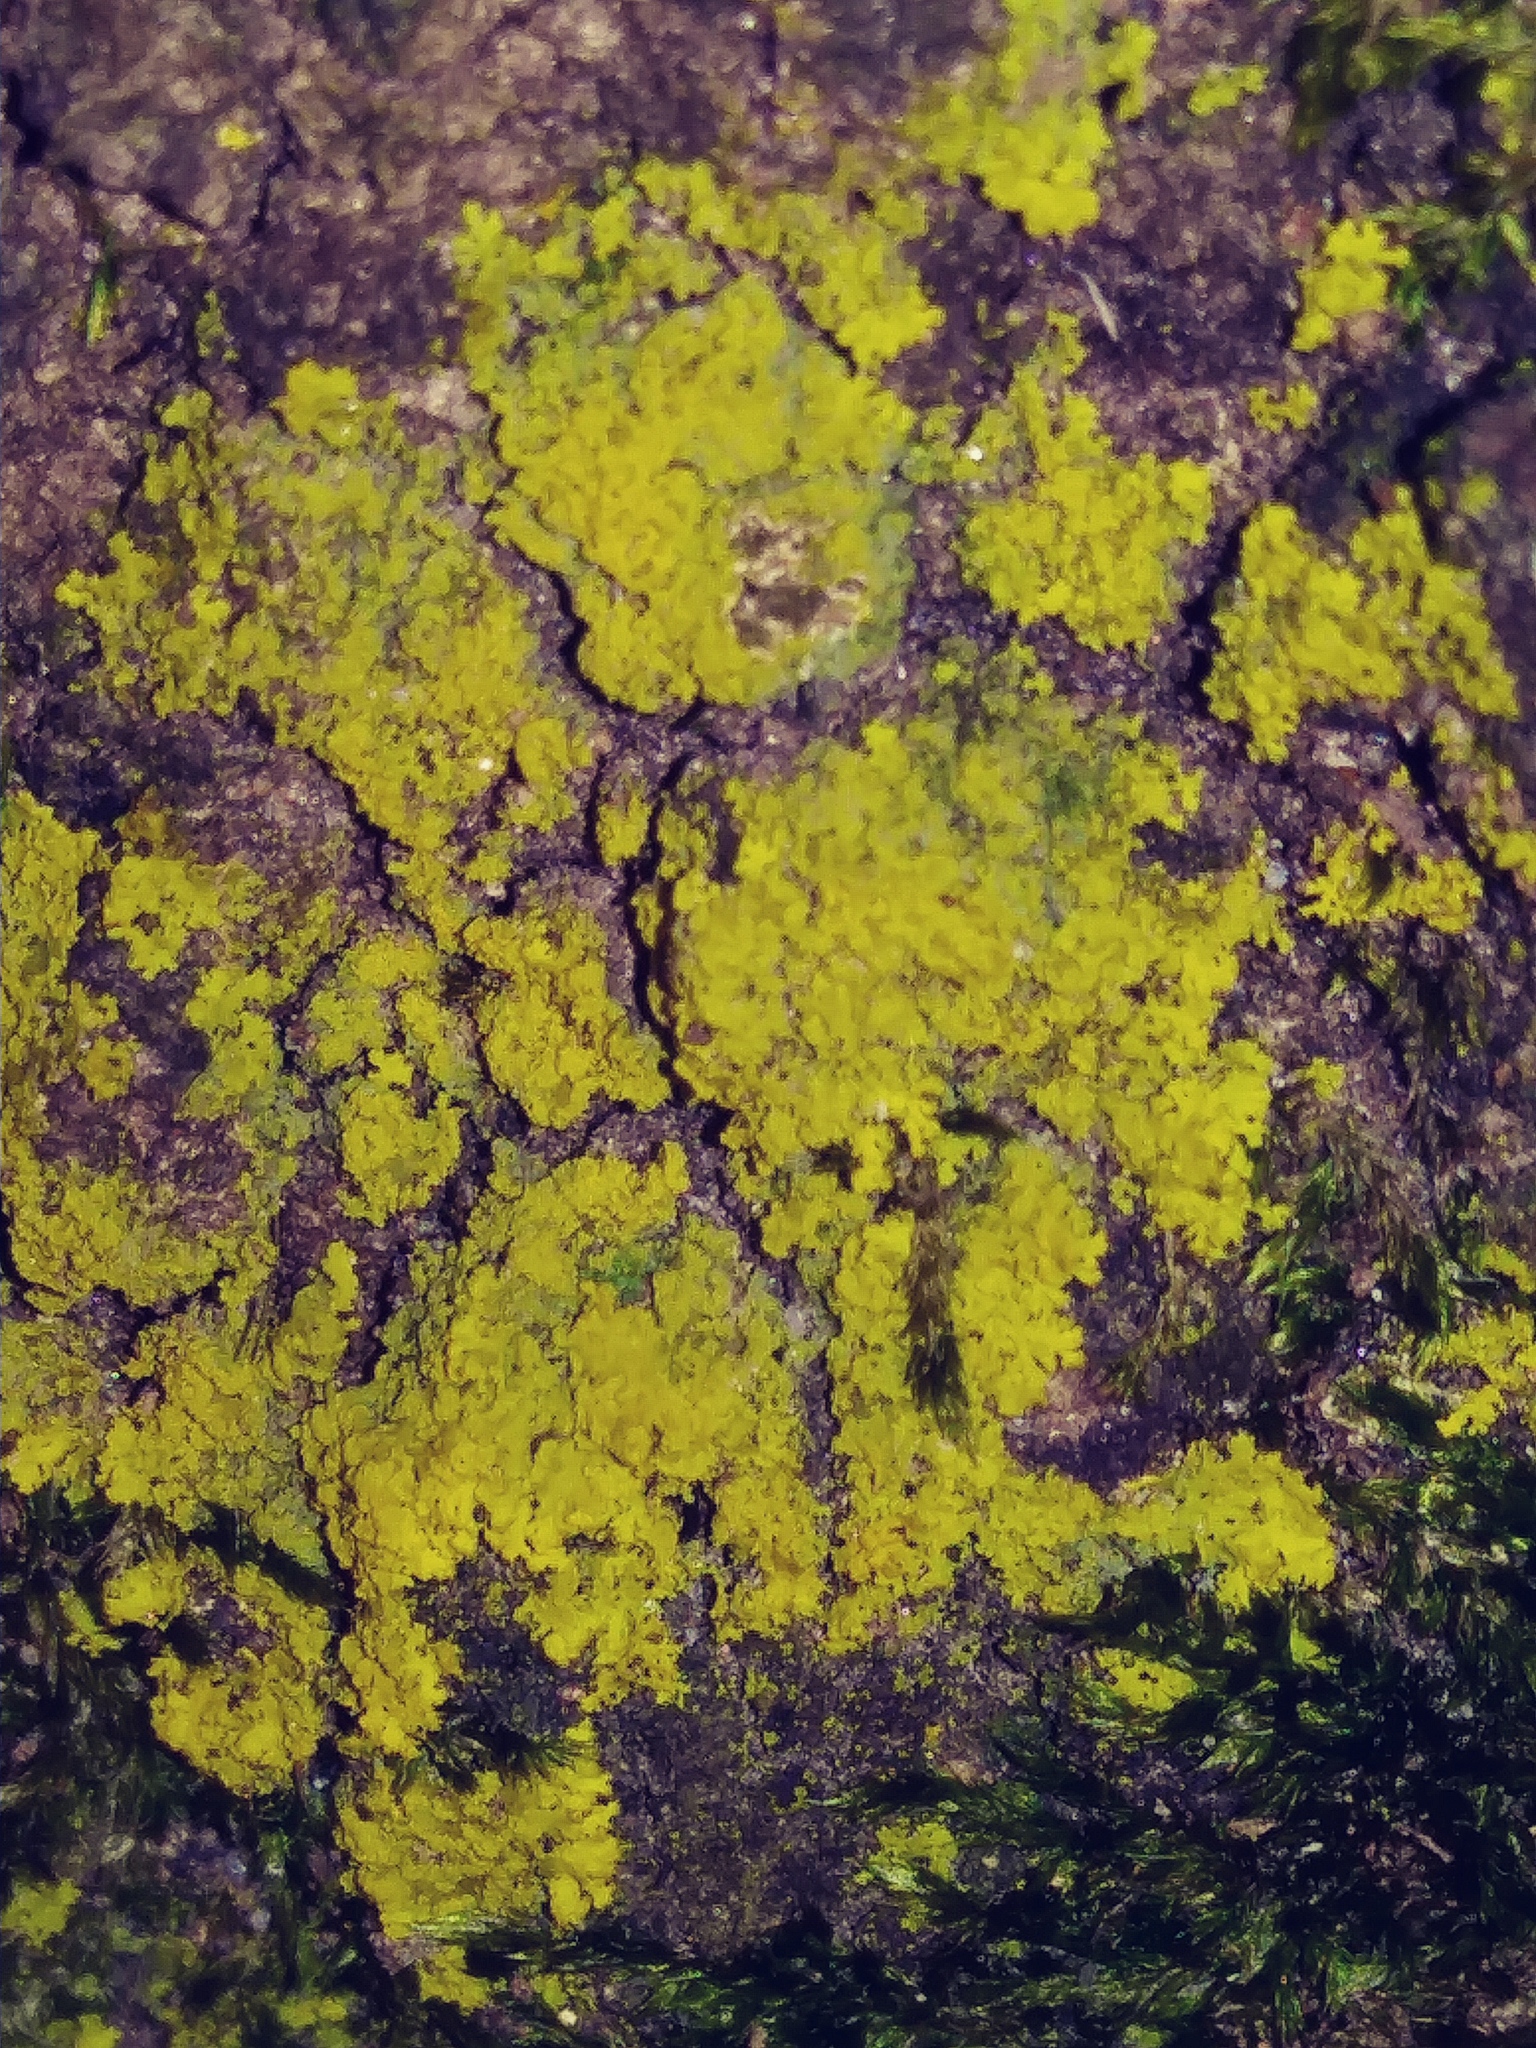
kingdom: Fungi
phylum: Ascomycota
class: Candelariomycetes
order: Candelariales
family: Candelariaceae
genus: Candelaria
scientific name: Candelaria concolor
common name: Candleflame lichen
